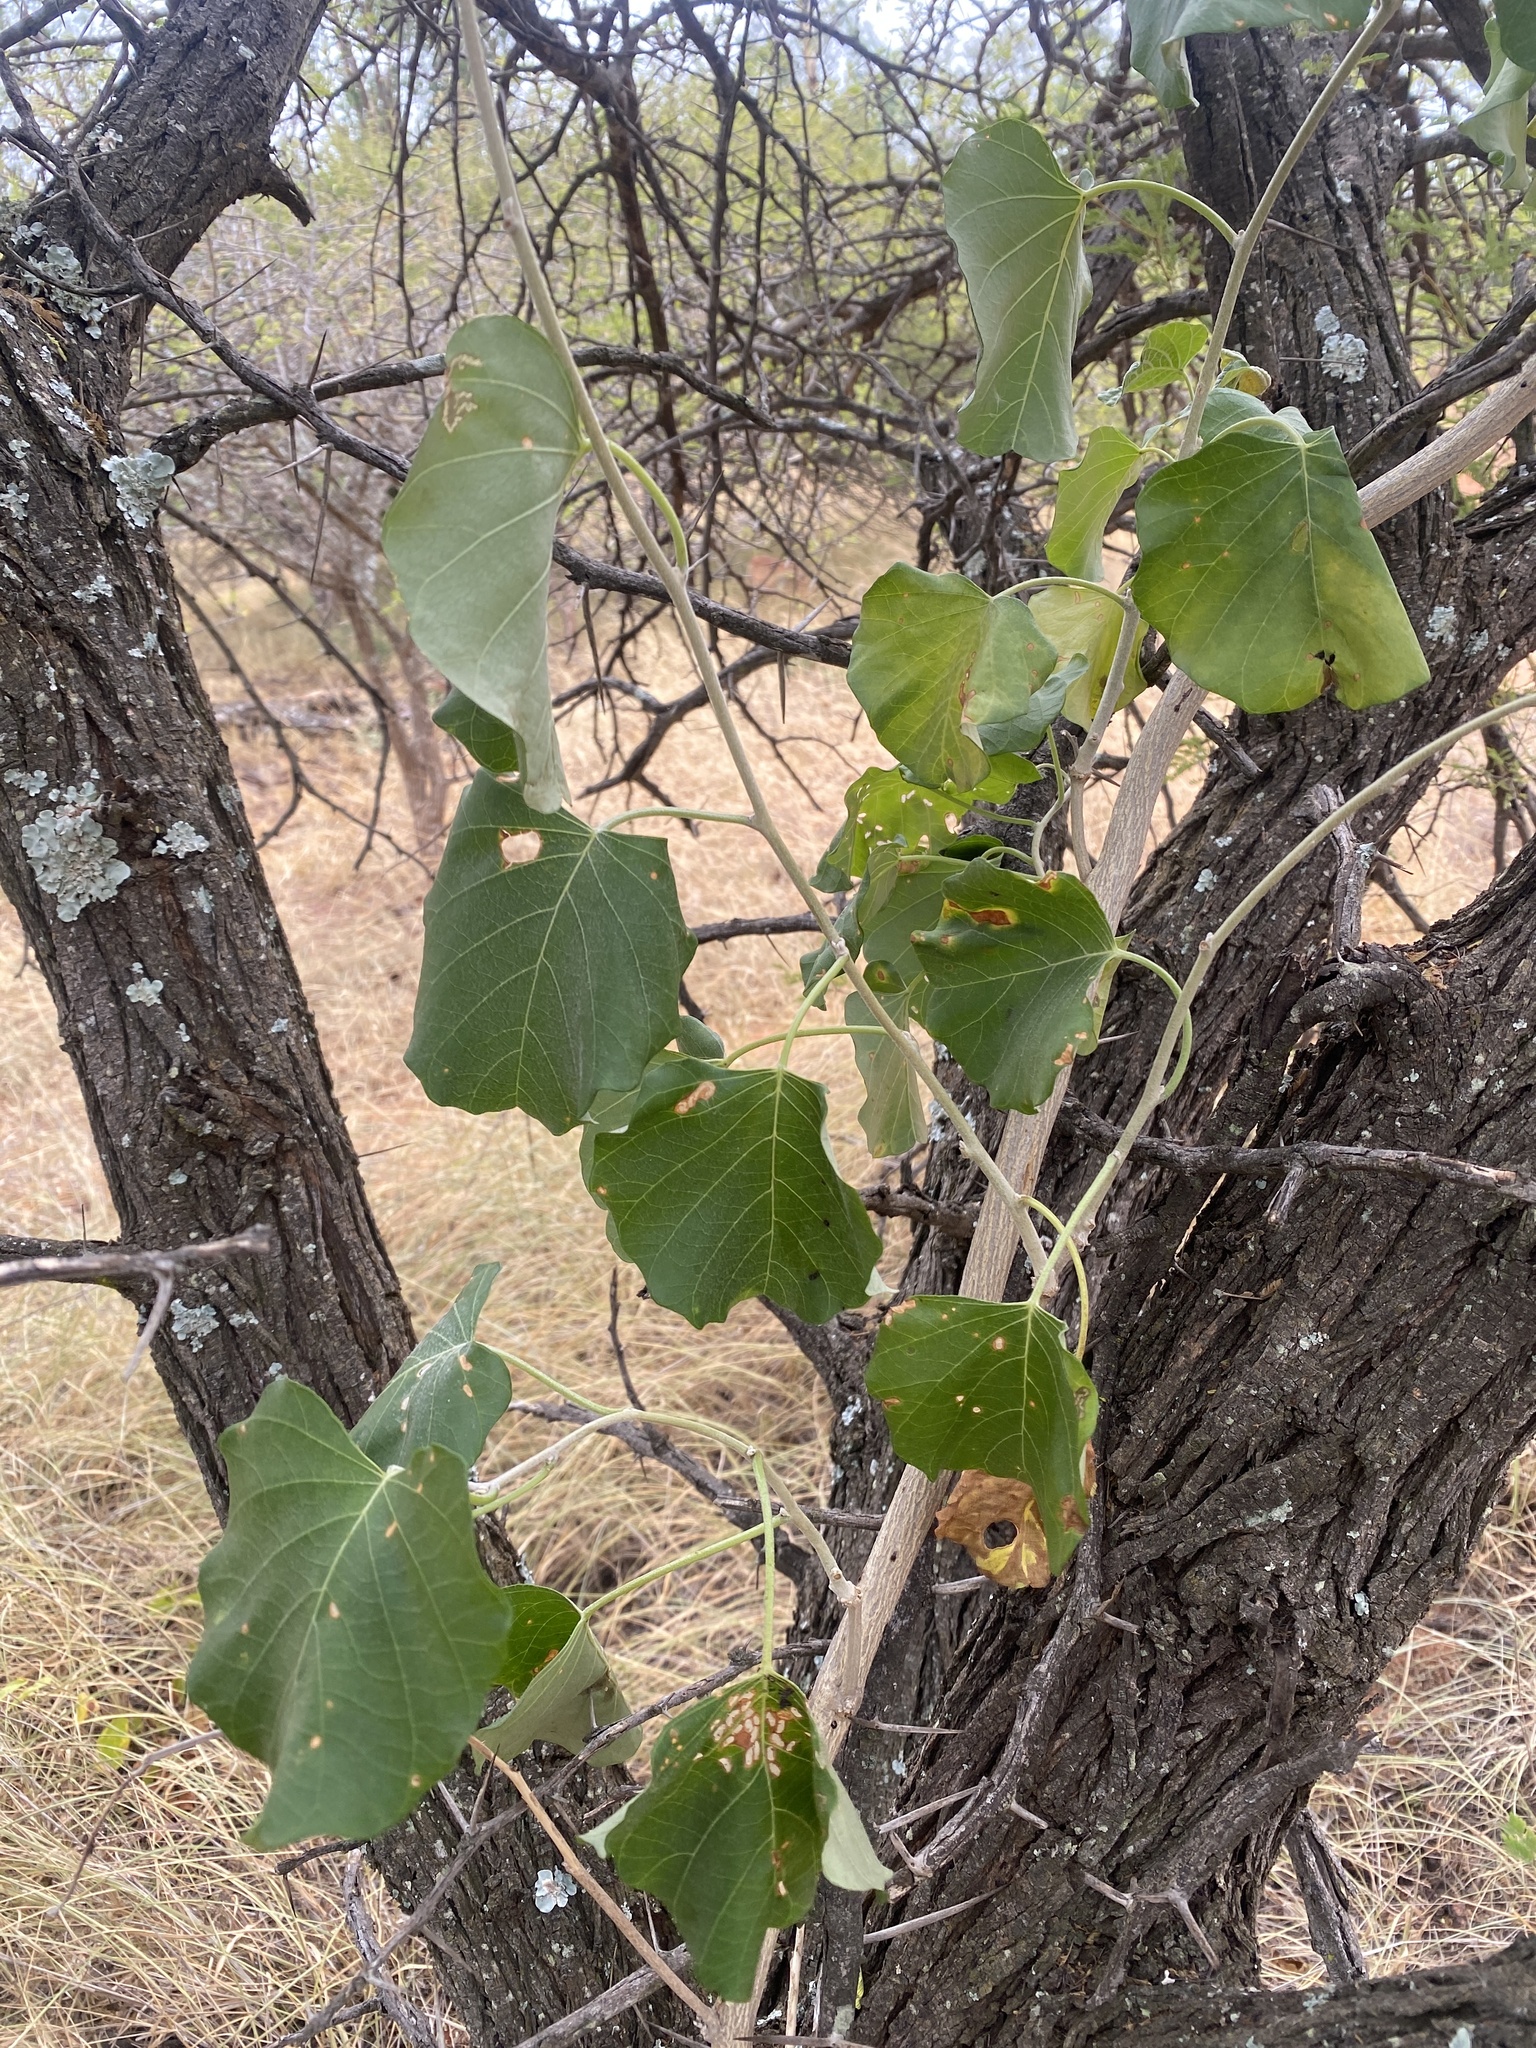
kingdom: Plantae
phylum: Tracheophyta
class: Magnoliopsida
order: Fabales
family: Fabaceae
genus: Pterocarpus
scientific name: Pterocarpus rotundifolius
